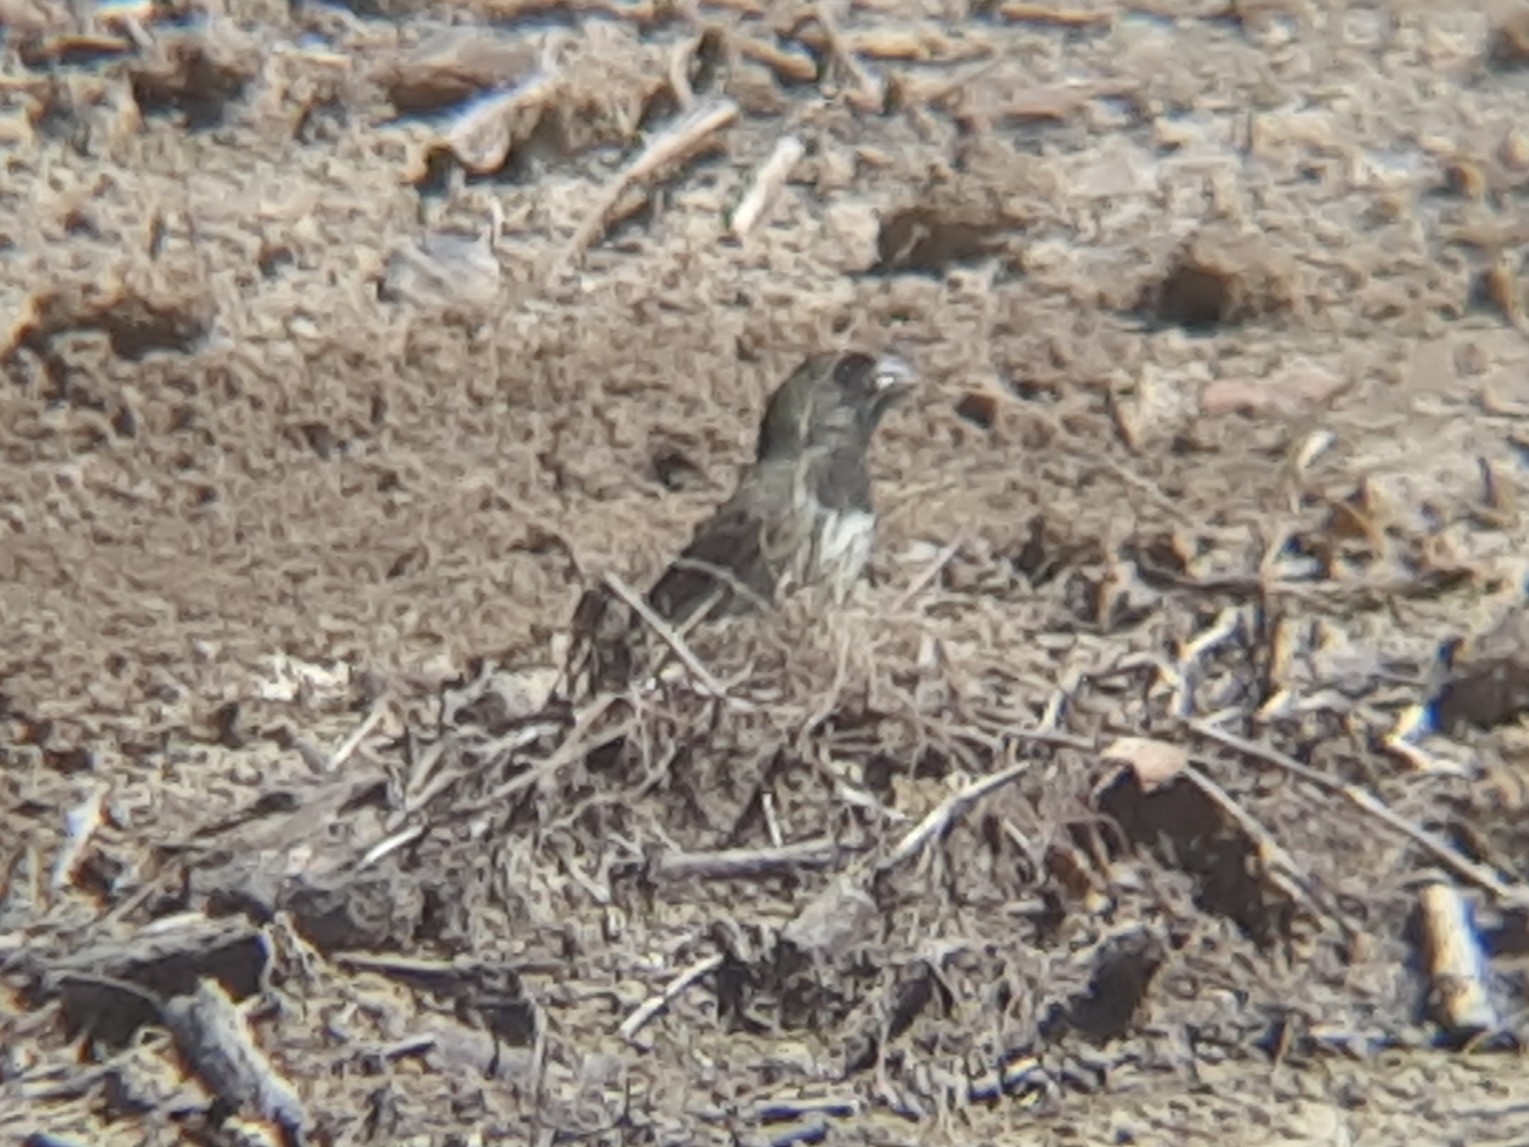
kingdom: Animalia
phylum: Chordata
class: Aves
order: Passeriformes
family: Thraupidae
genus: Sporophila
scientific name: Sporophila ardesiaca
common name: Dubois's seedeater
